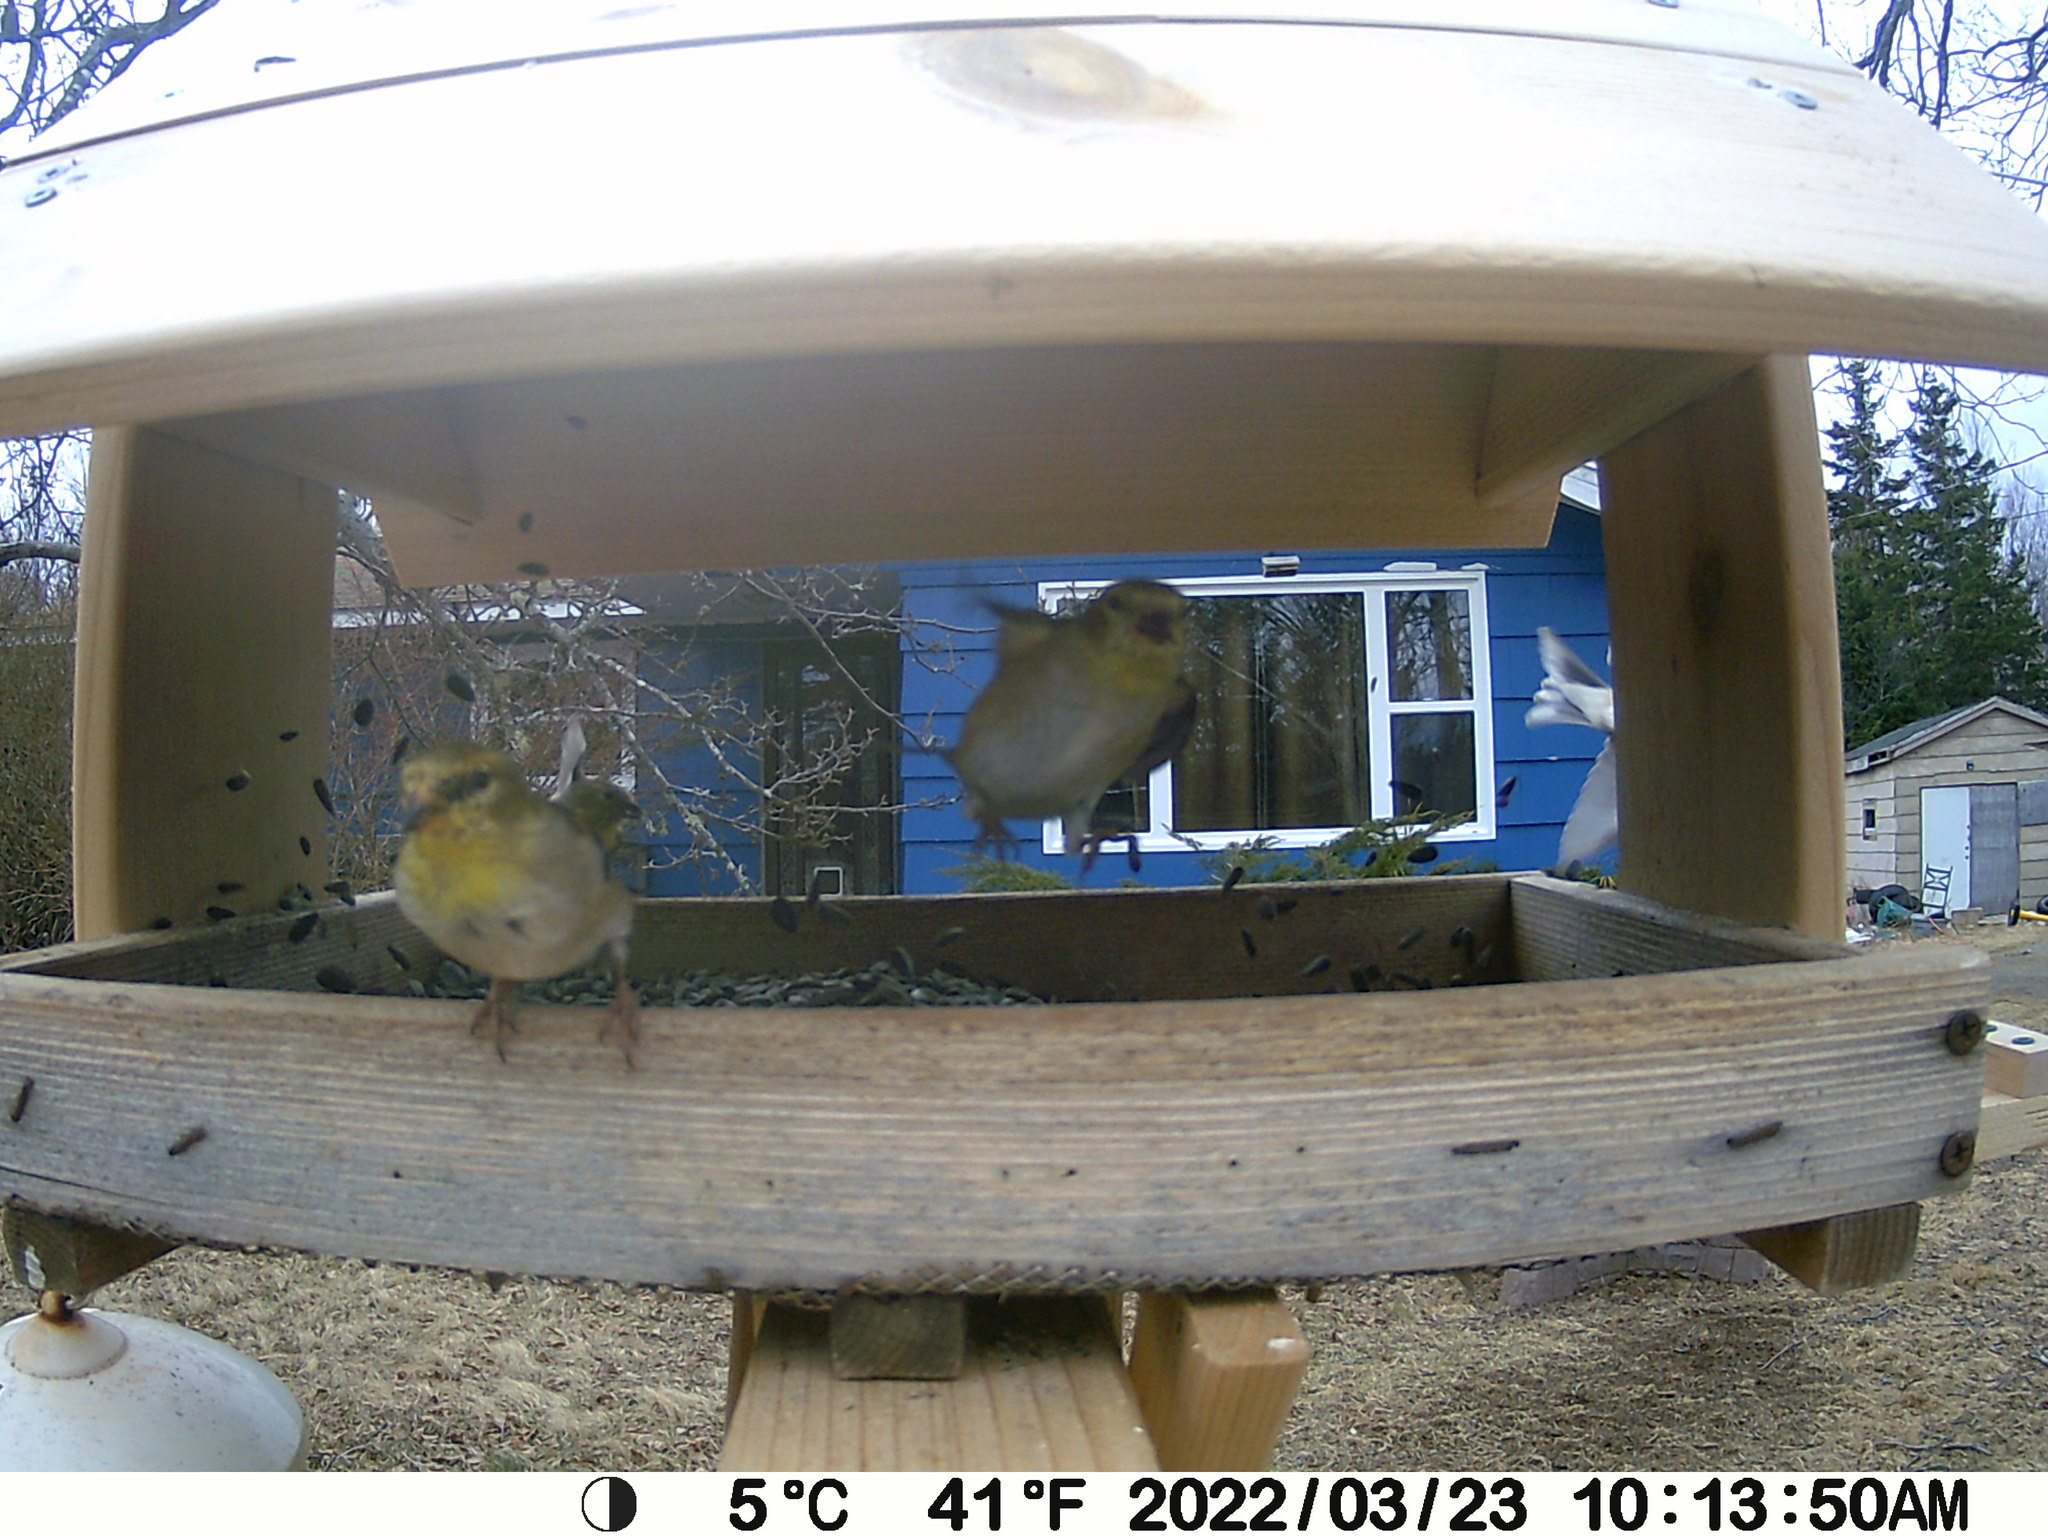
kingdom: Animalia
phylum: Chordata
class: Aves
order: Passeriformes
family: Fringillidae
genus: Spinus
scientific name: Spinus tristis
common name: American goldfinch
